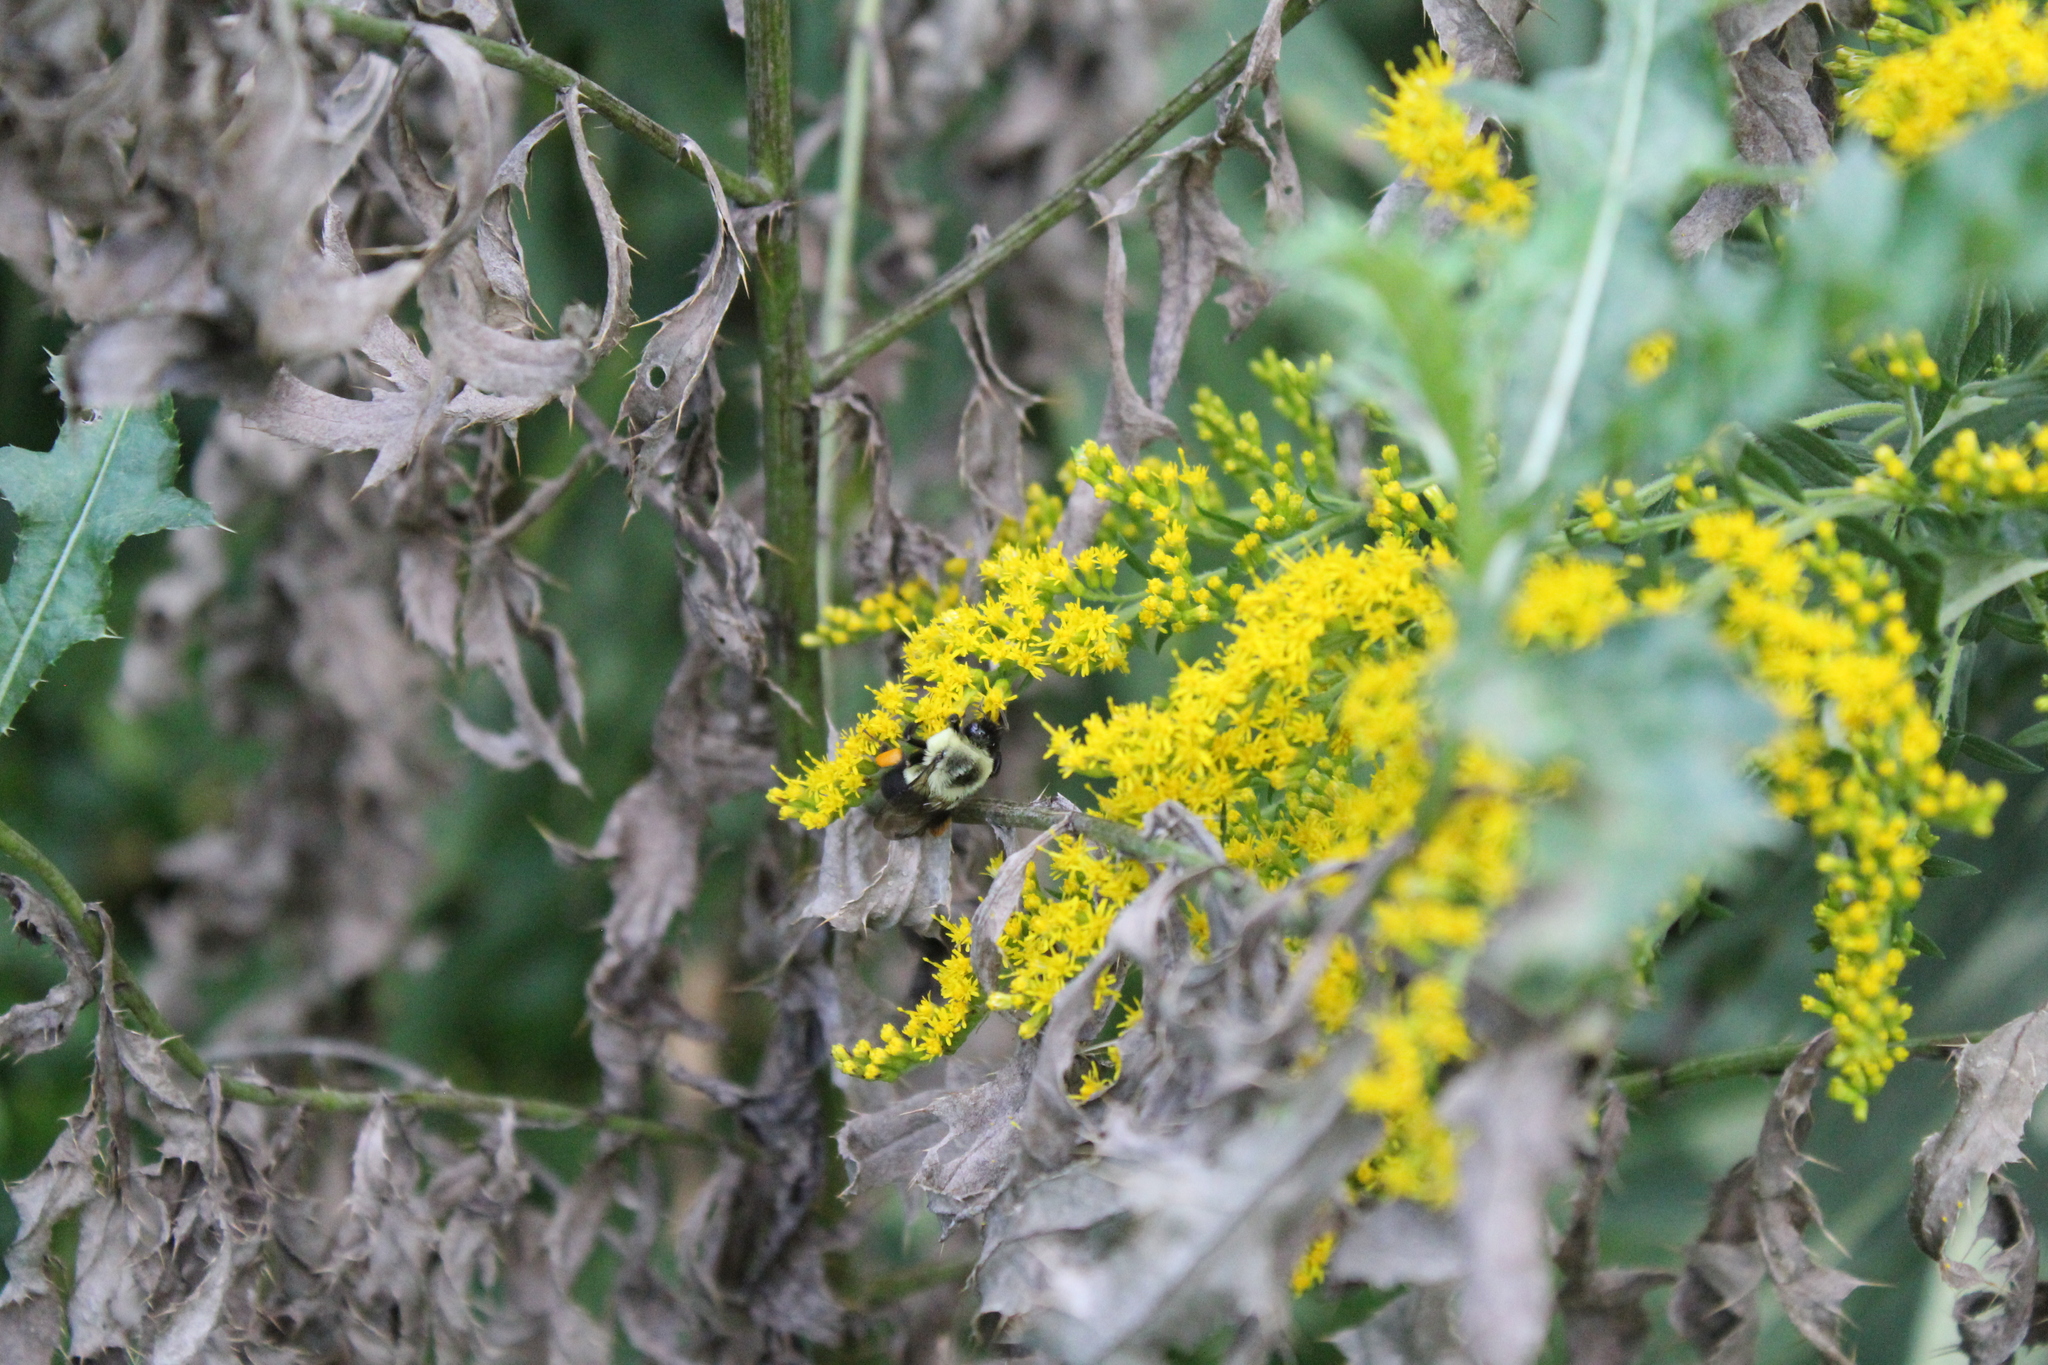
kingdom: Animalia
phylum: Arthropoda
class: Insecta
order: Hymenoptera
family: Apidae
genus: Bombus
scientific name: Bombus impatiens
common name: Common eastern bumble bee
